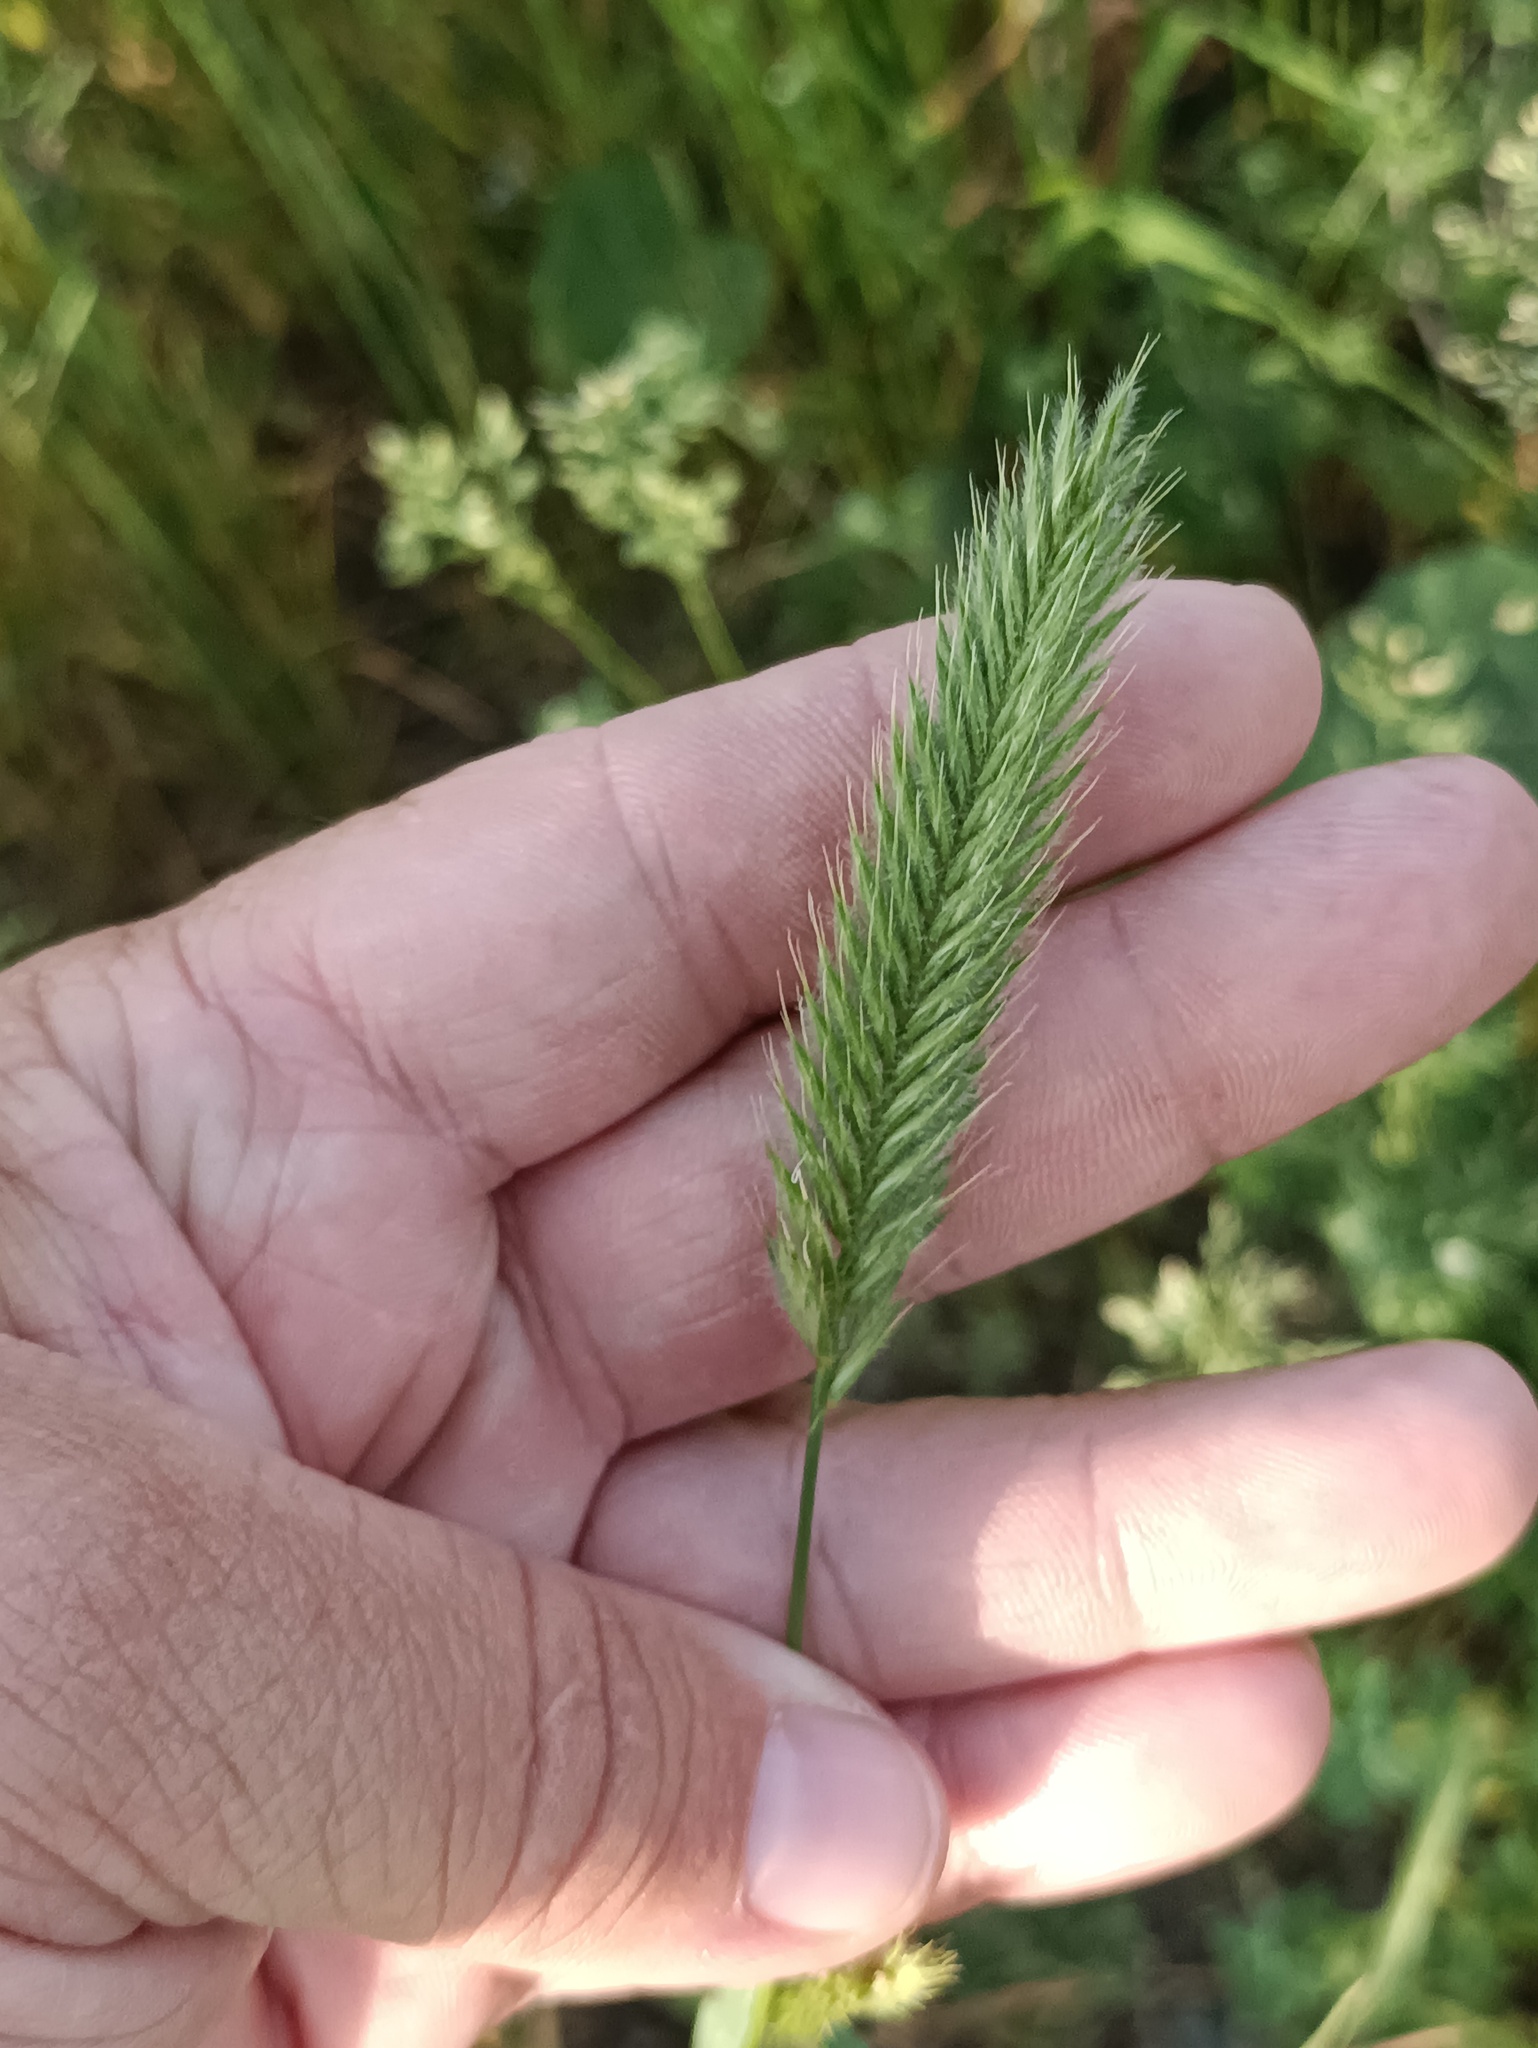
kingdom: Plantae
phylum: Tracheophyta
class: Liliopsida
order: Poales
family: Poaceae
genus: Agropyron
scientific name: Agropyron cristatum
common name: Crested wheatgrass
